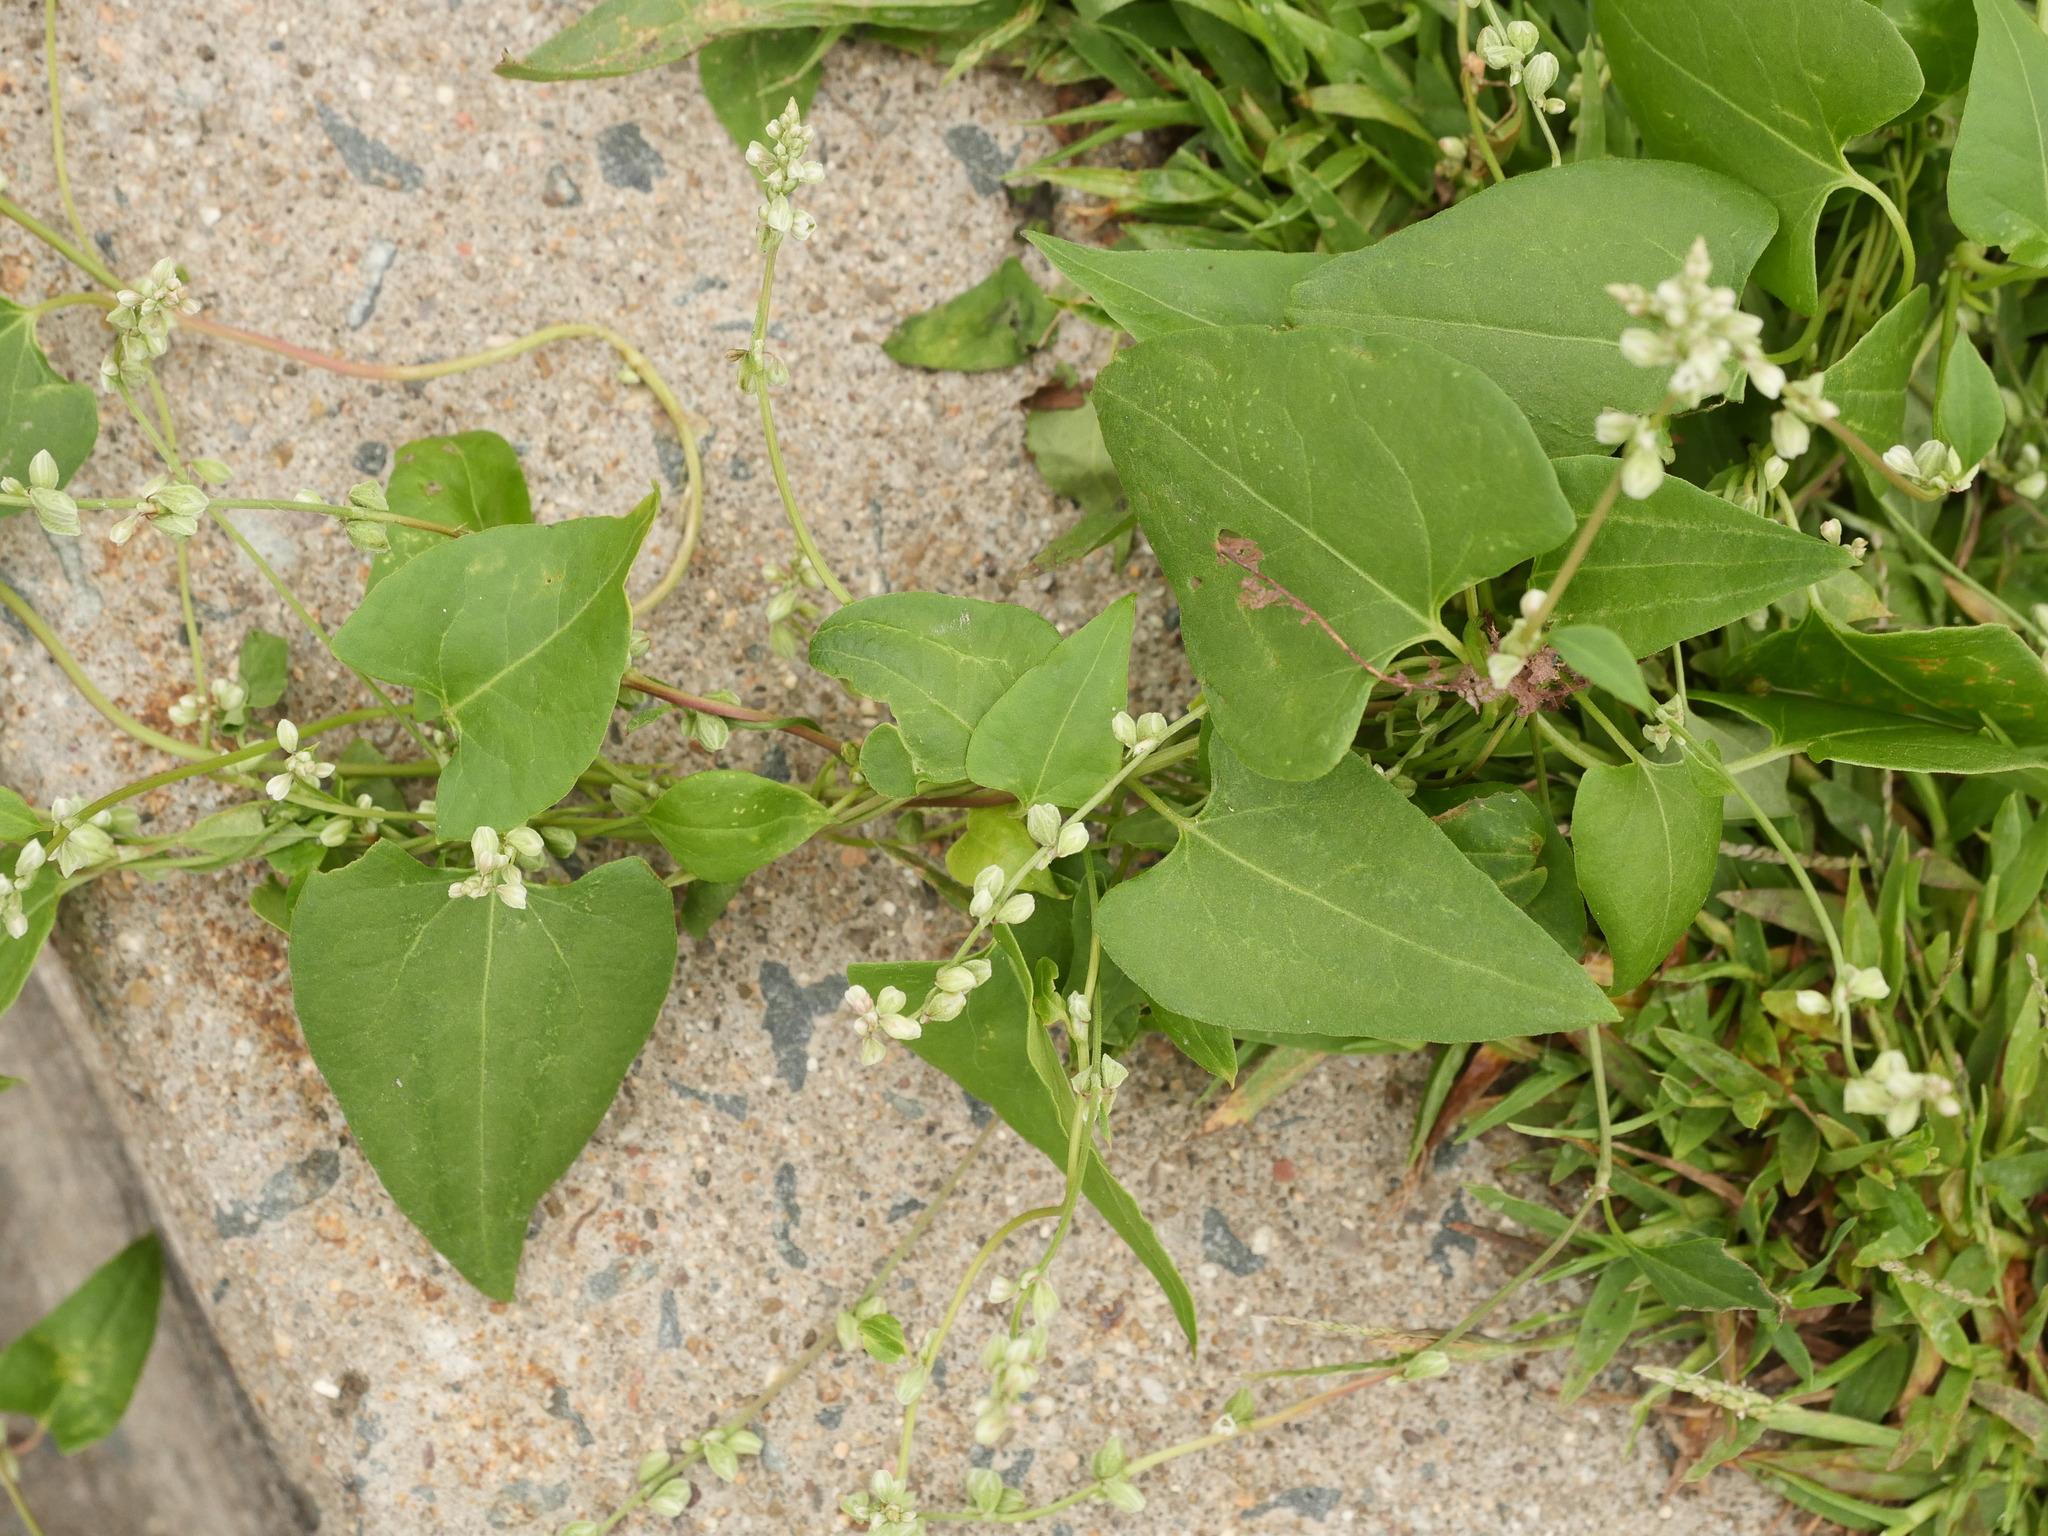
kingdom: Plantae
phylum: Tracheophyta
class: Magnoliopsida
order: Caryophyllales
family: Polygonaceae
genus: Fallopia
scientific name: Fallopia convolvulus
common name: Black bindweed
